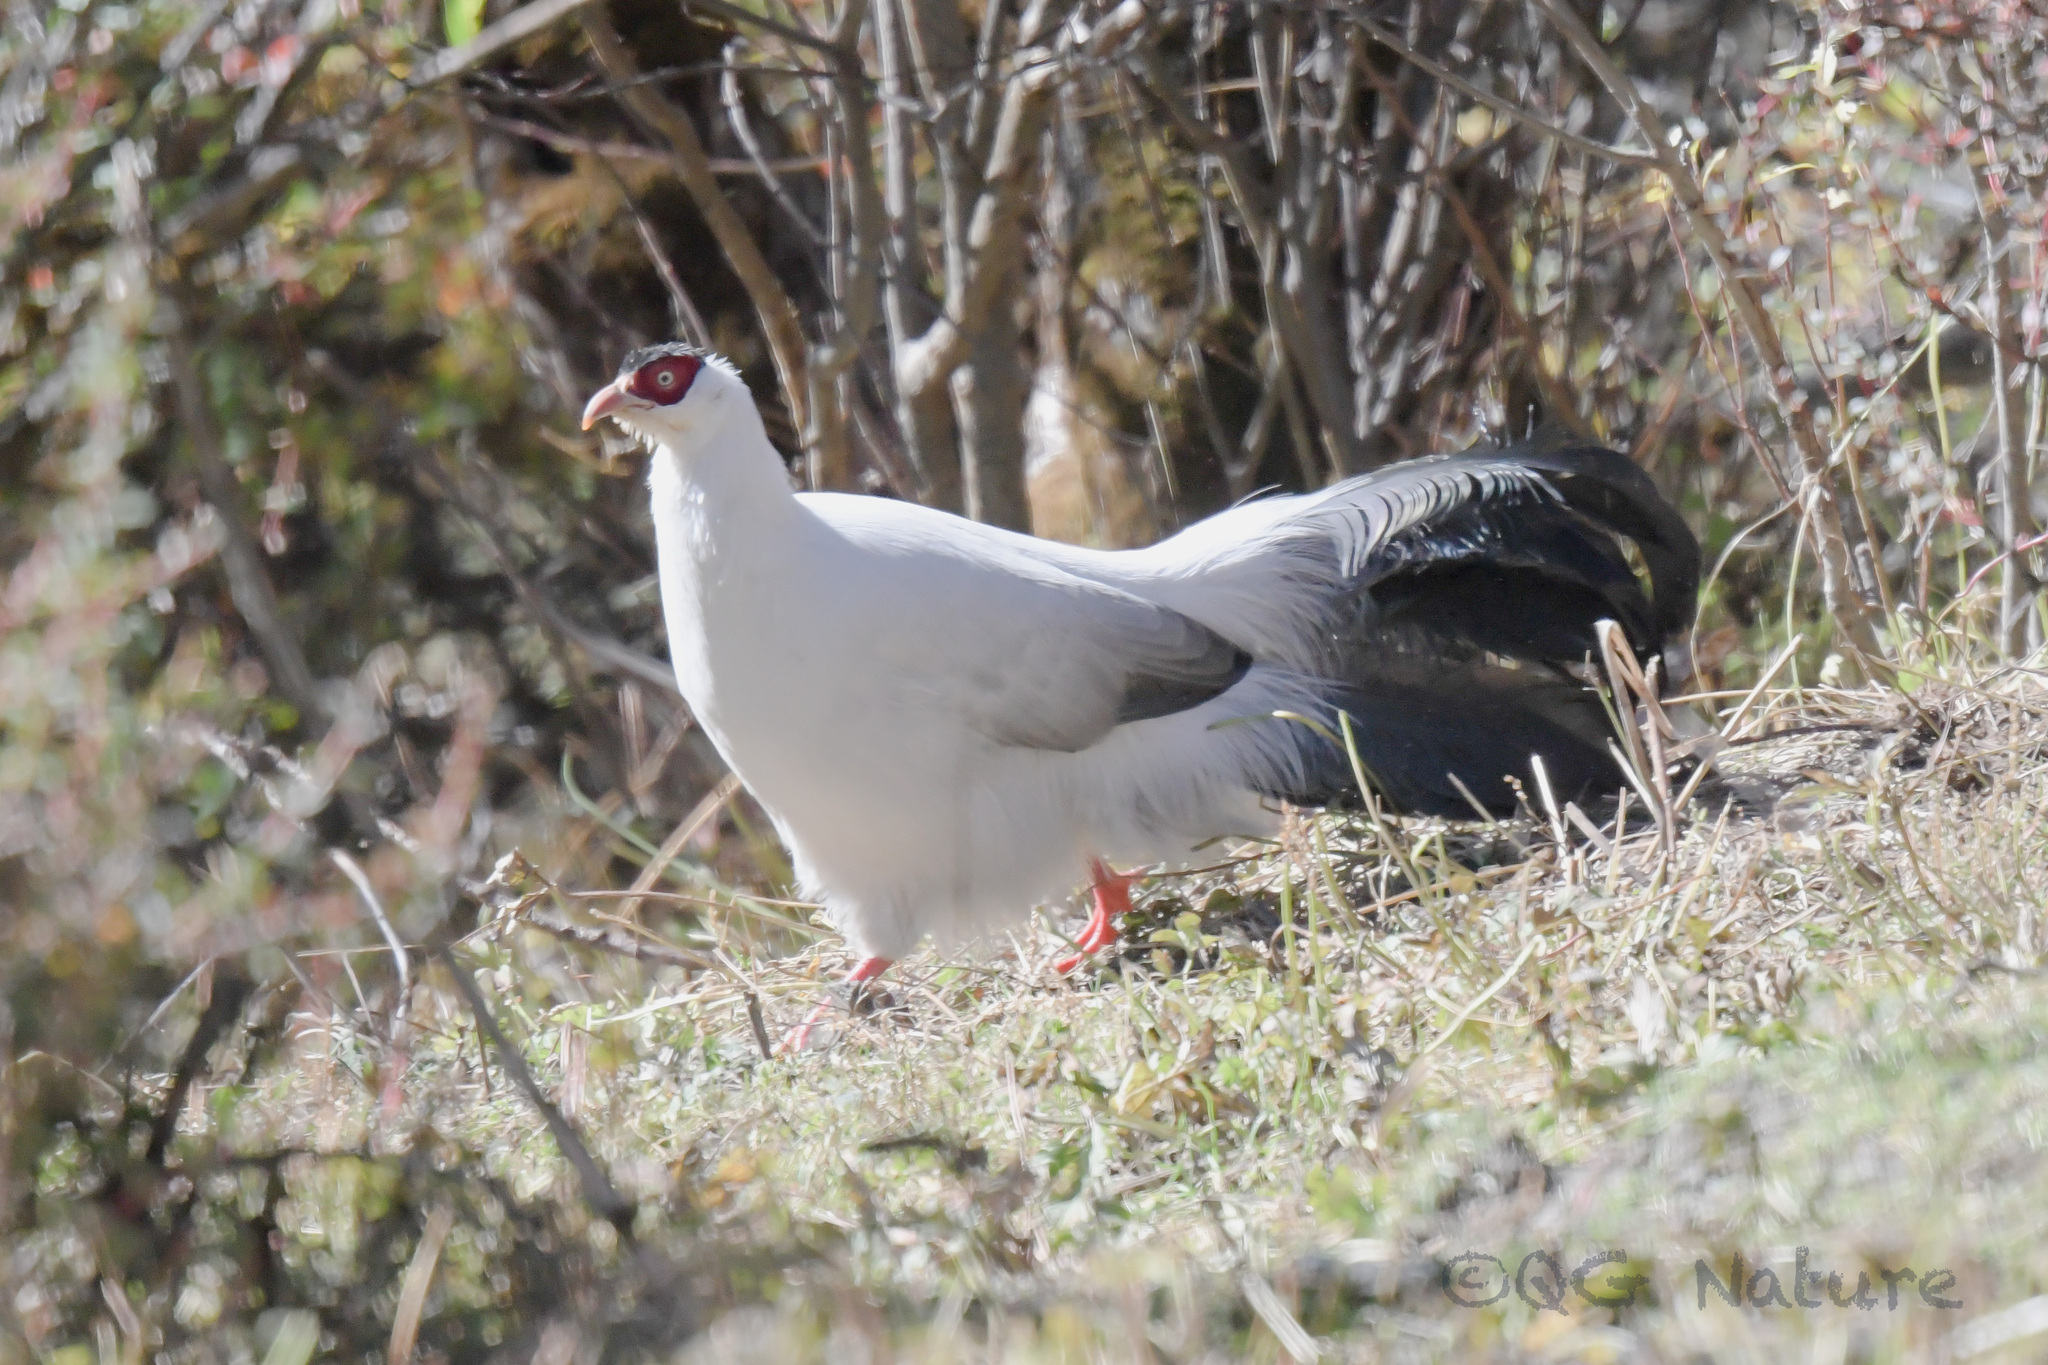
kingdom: Animalia
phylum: Chordata
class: Aves
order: Galliformes
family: Phasianidae
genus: Crossoptilon
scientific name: Crossoptilon crossoptilon
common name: White eared-pheasant
